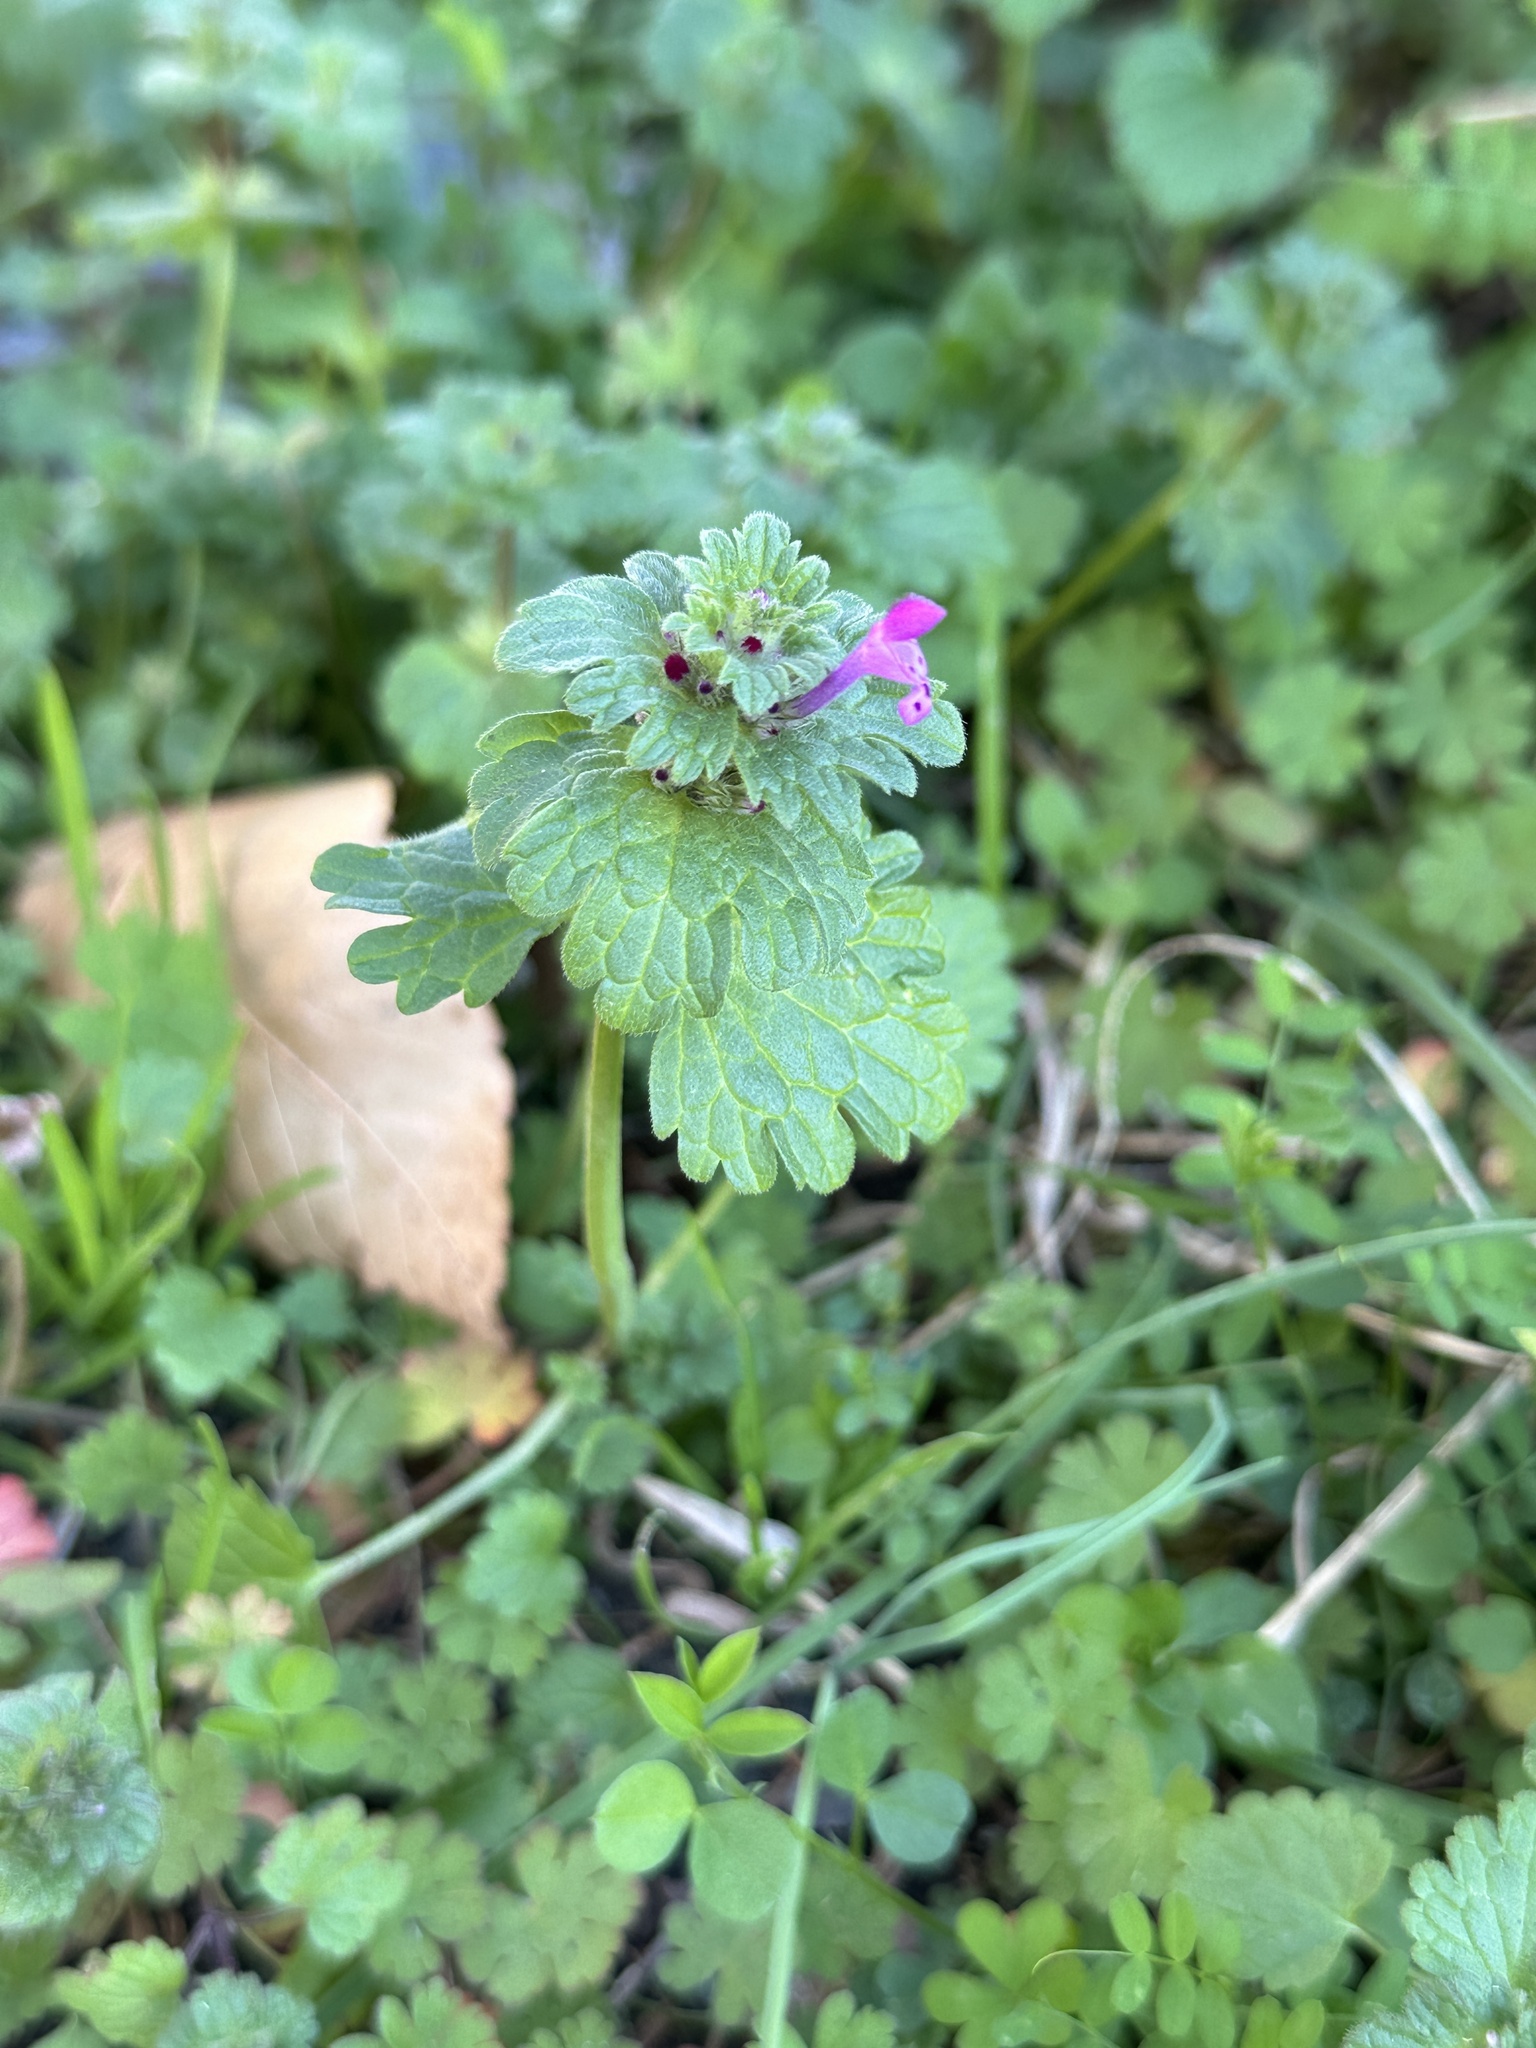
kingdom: Plantae
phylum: Tracheophyta
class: Magnoliopsida
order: Lamiales
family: Lamiaceae
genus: Lamium
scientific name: Lamium amplexicaule
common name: Henbit dead-nettle
